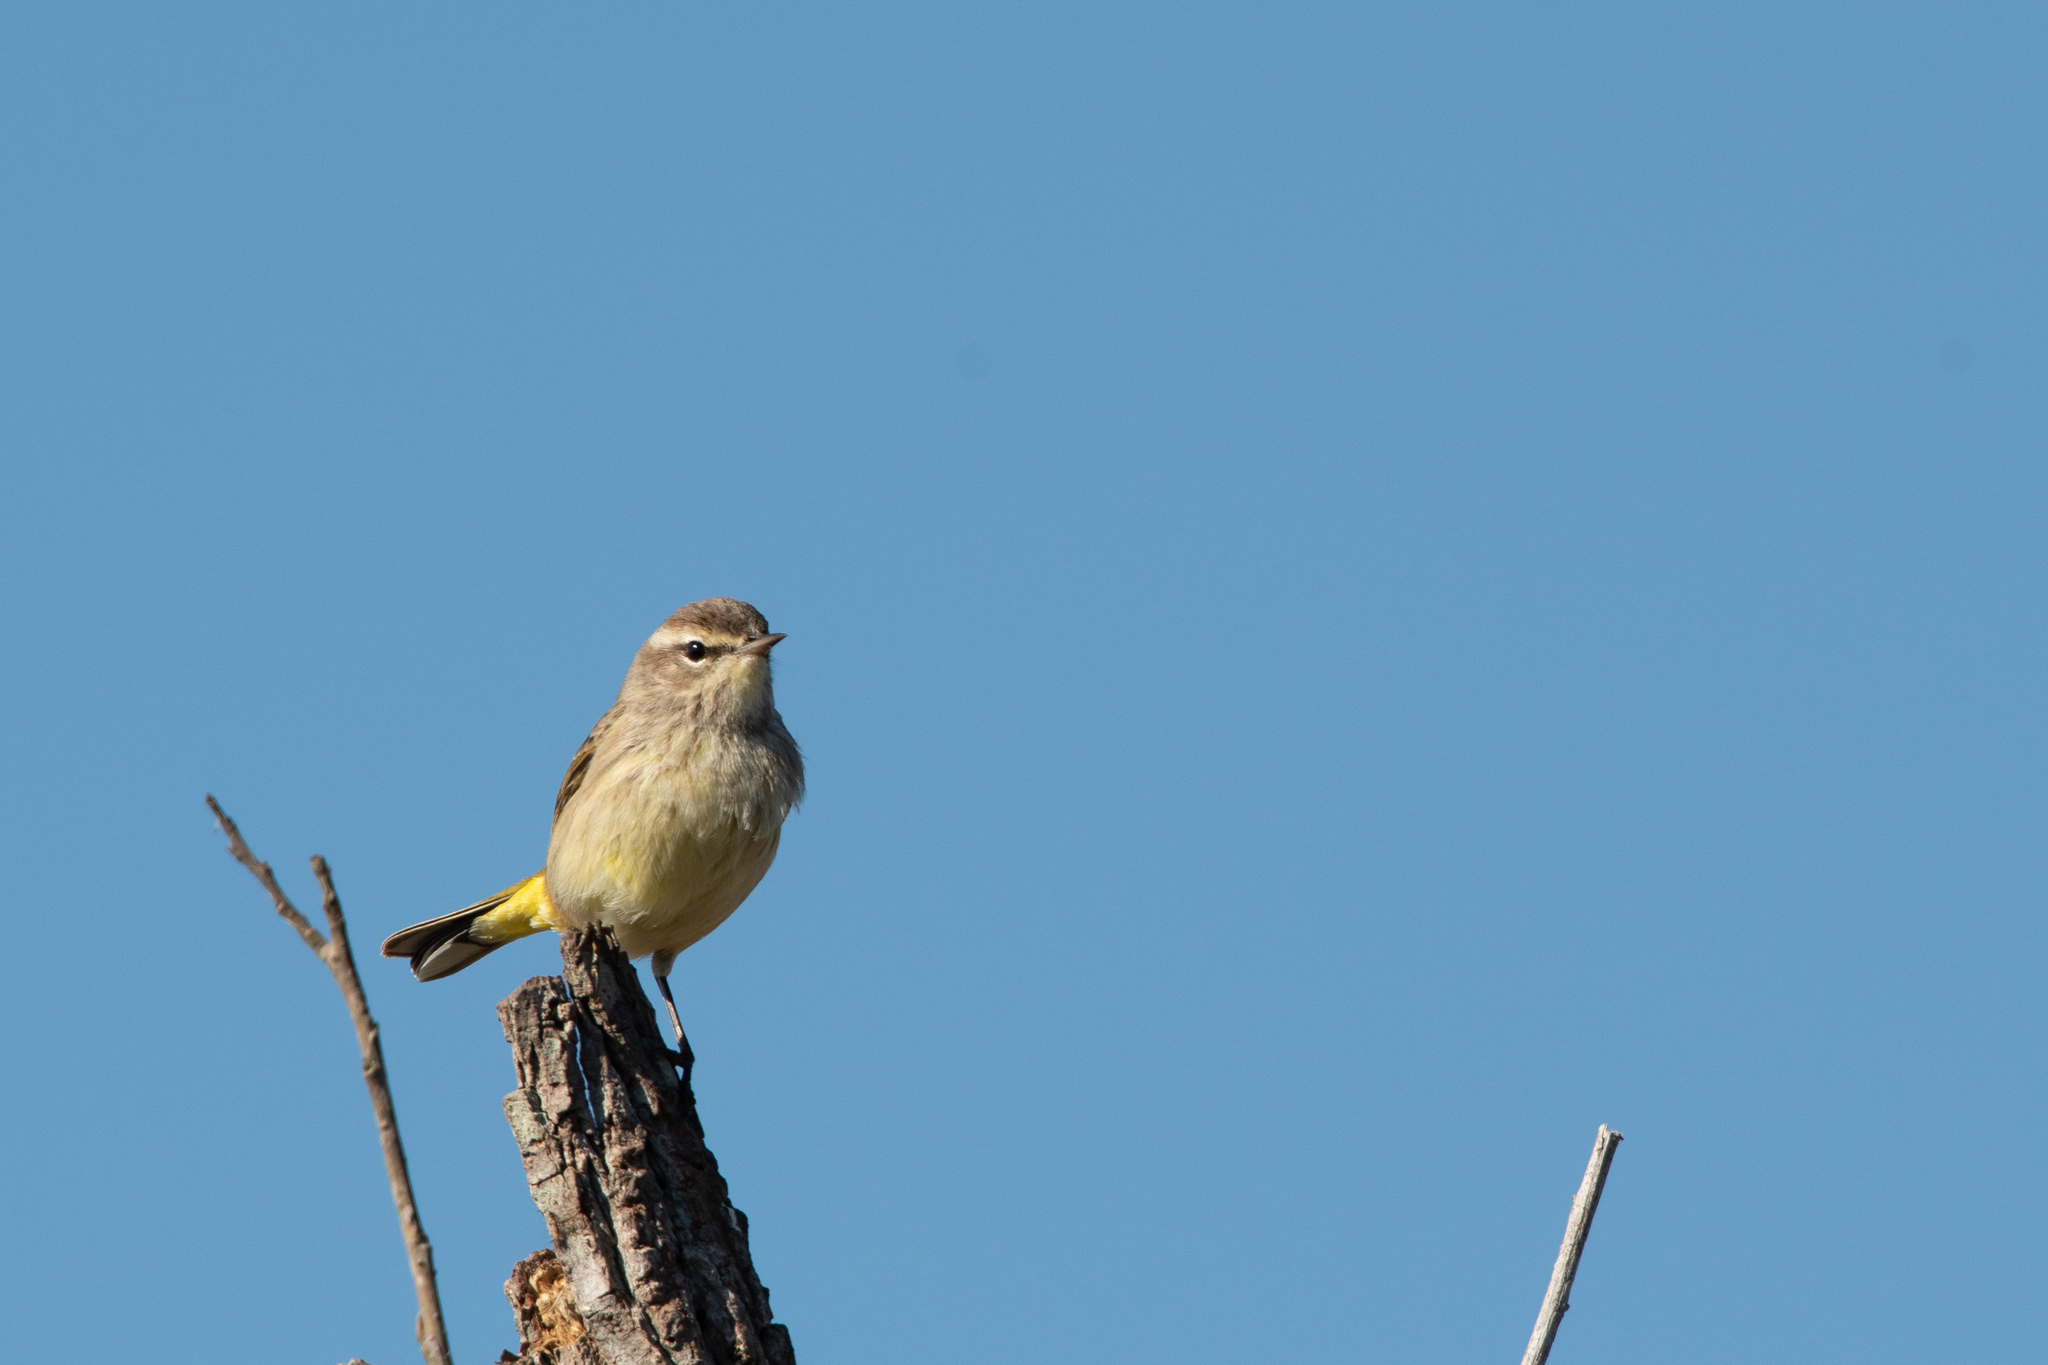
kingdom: Animalia
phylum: Chordata
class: Aves
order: Passeriformes
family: Parulidae
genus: Setophaga
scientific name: Setophaga palmarum
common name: Palm warbler
